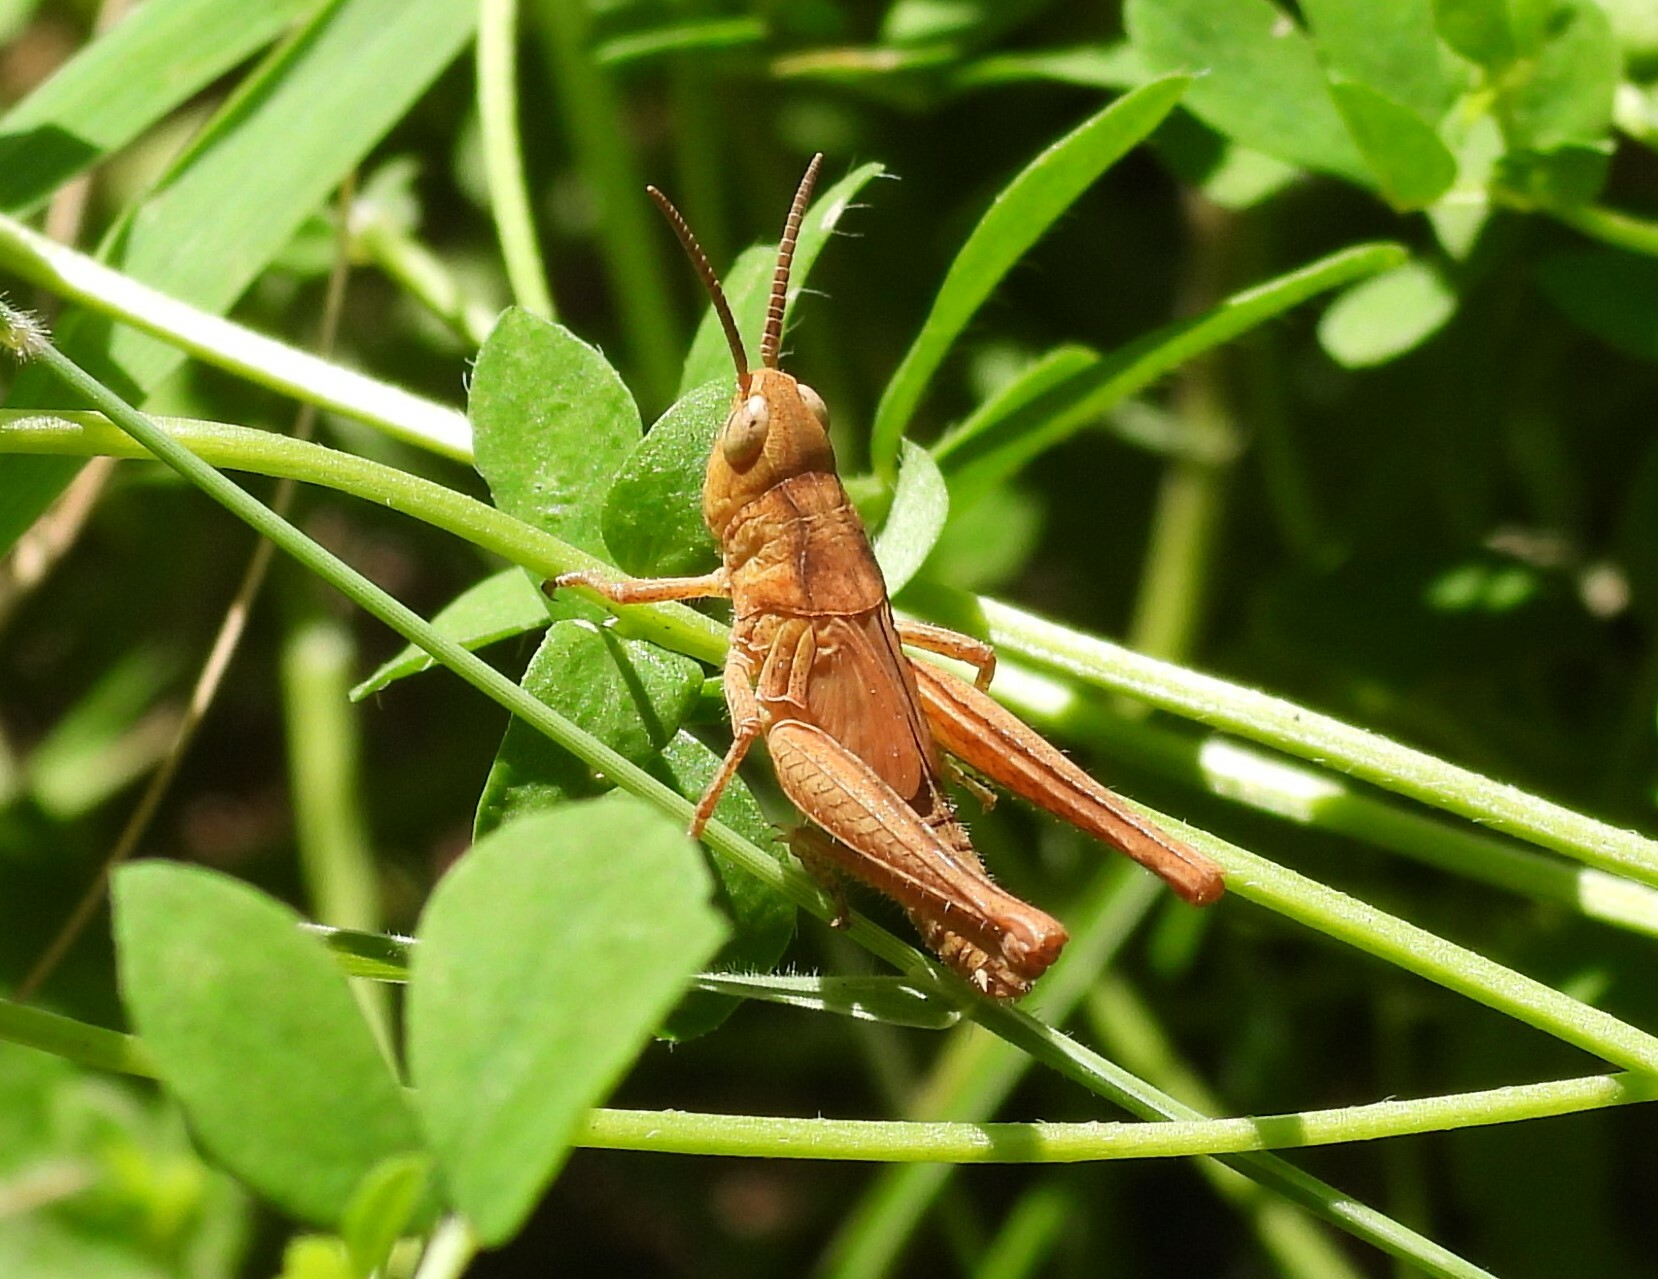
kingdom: Animalia
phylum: Arthropoda
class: Insecta
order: Orthoptera
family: Acrididae
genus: Chorthippus
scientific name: Chorthippus brunneus
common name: Field grasshopper
